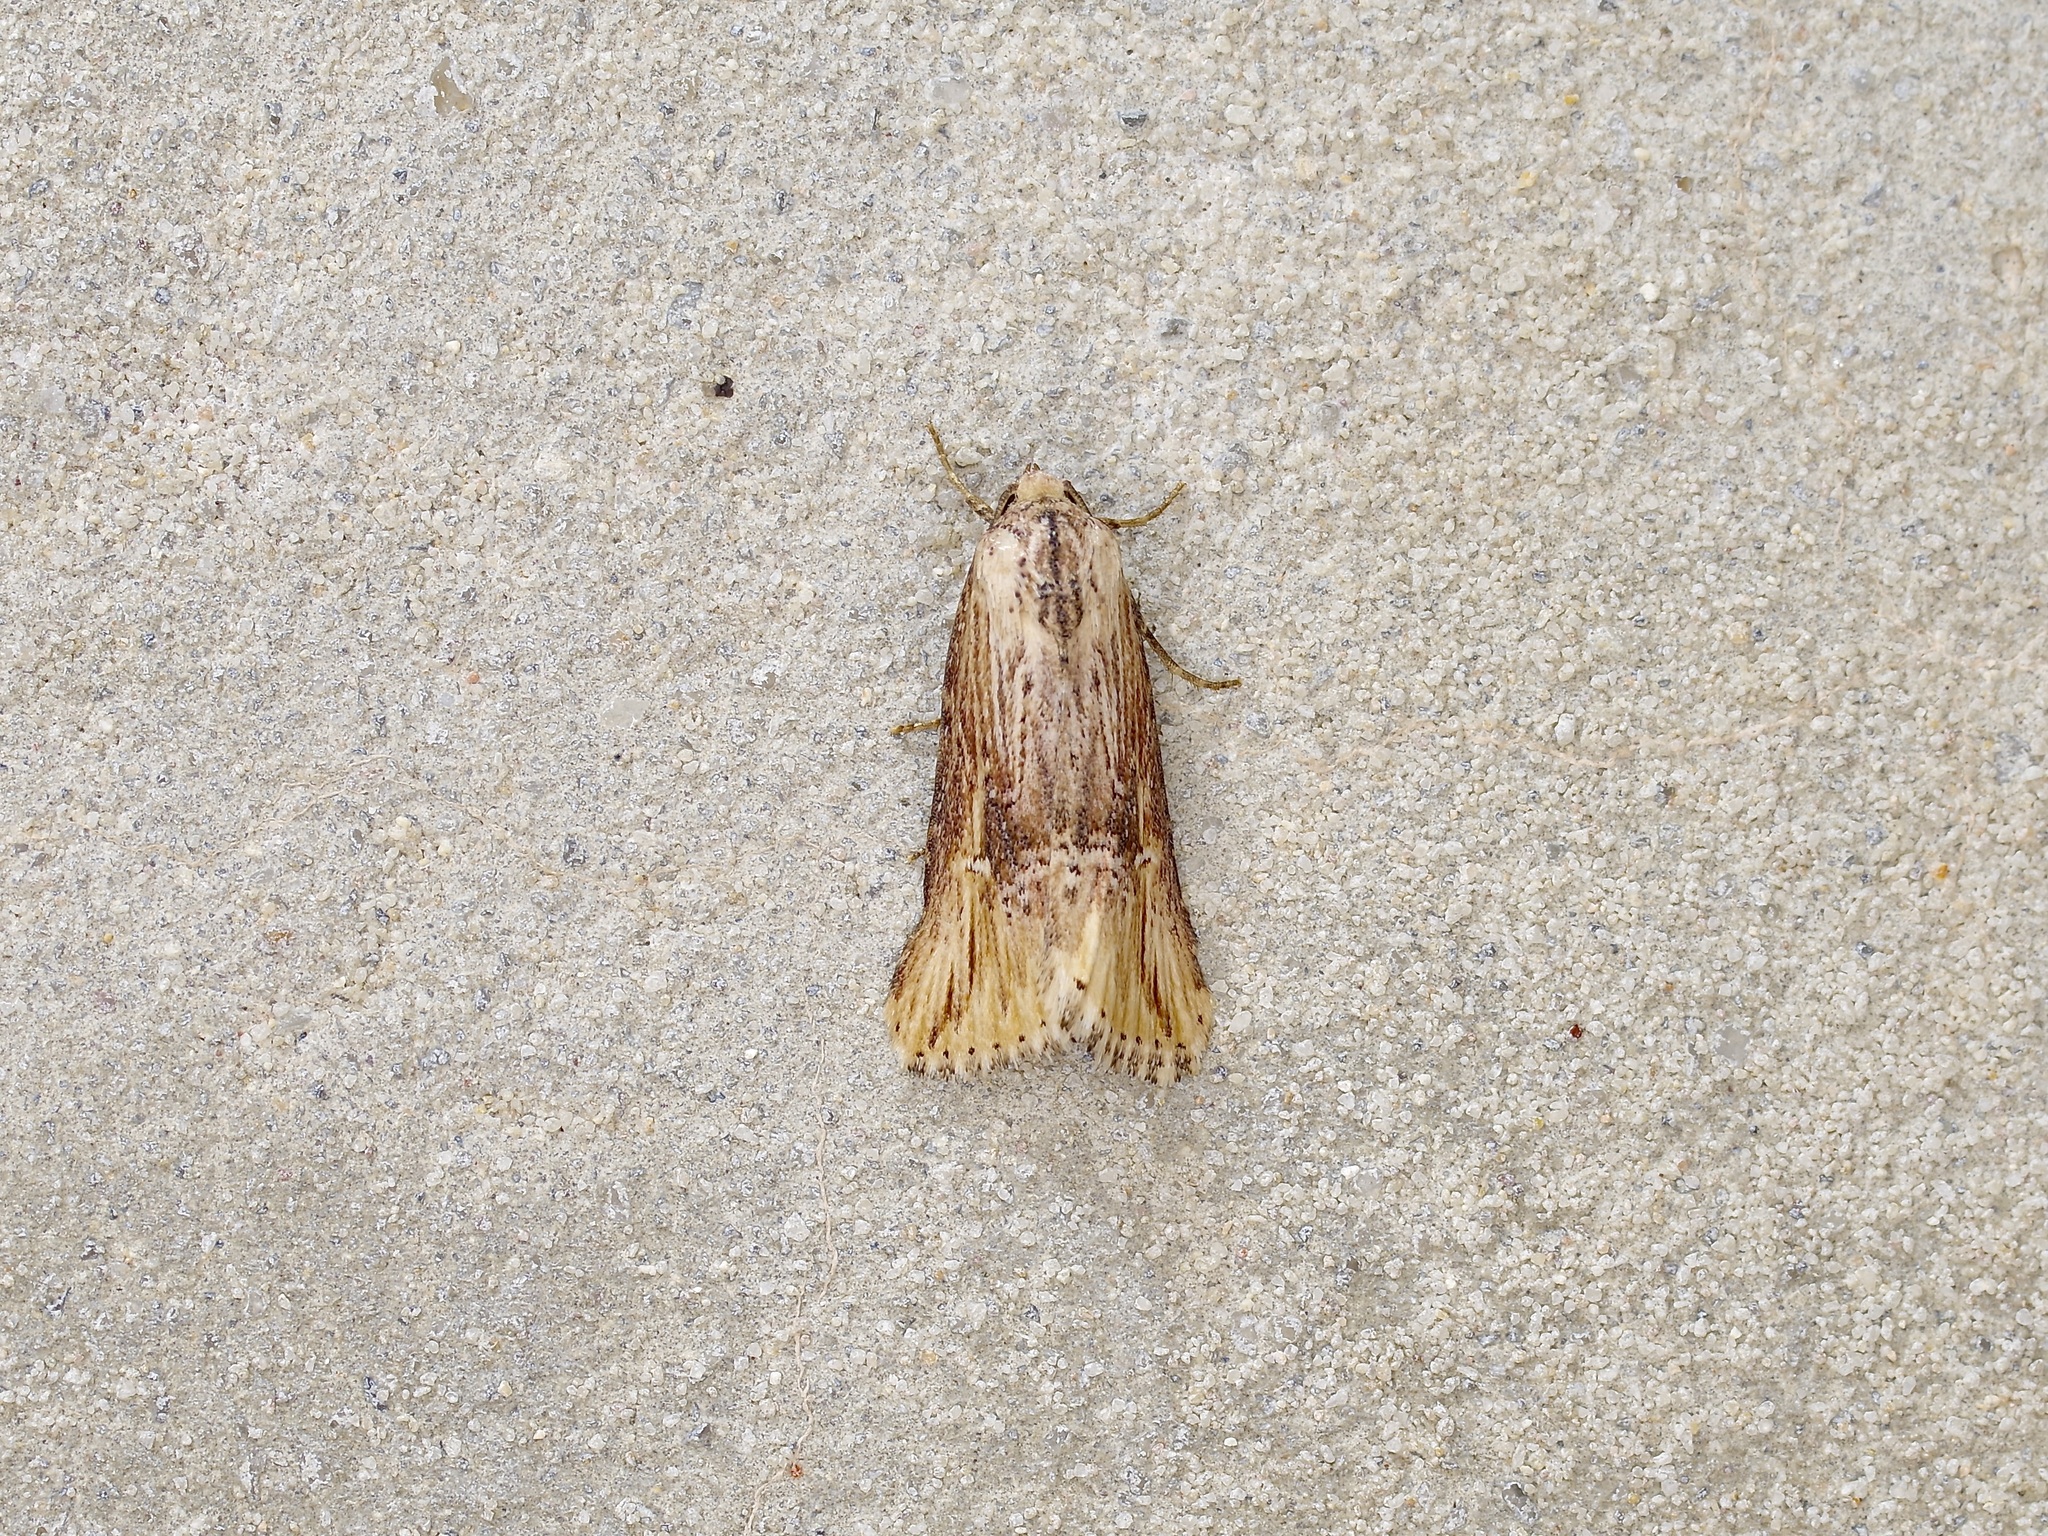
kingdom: Animalia
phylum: Arthropoda
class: Insecta
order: Lepidoptera
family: Noctuidae
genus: Crambodes
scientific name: Crambodes talidiformis
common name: Verbena moth
